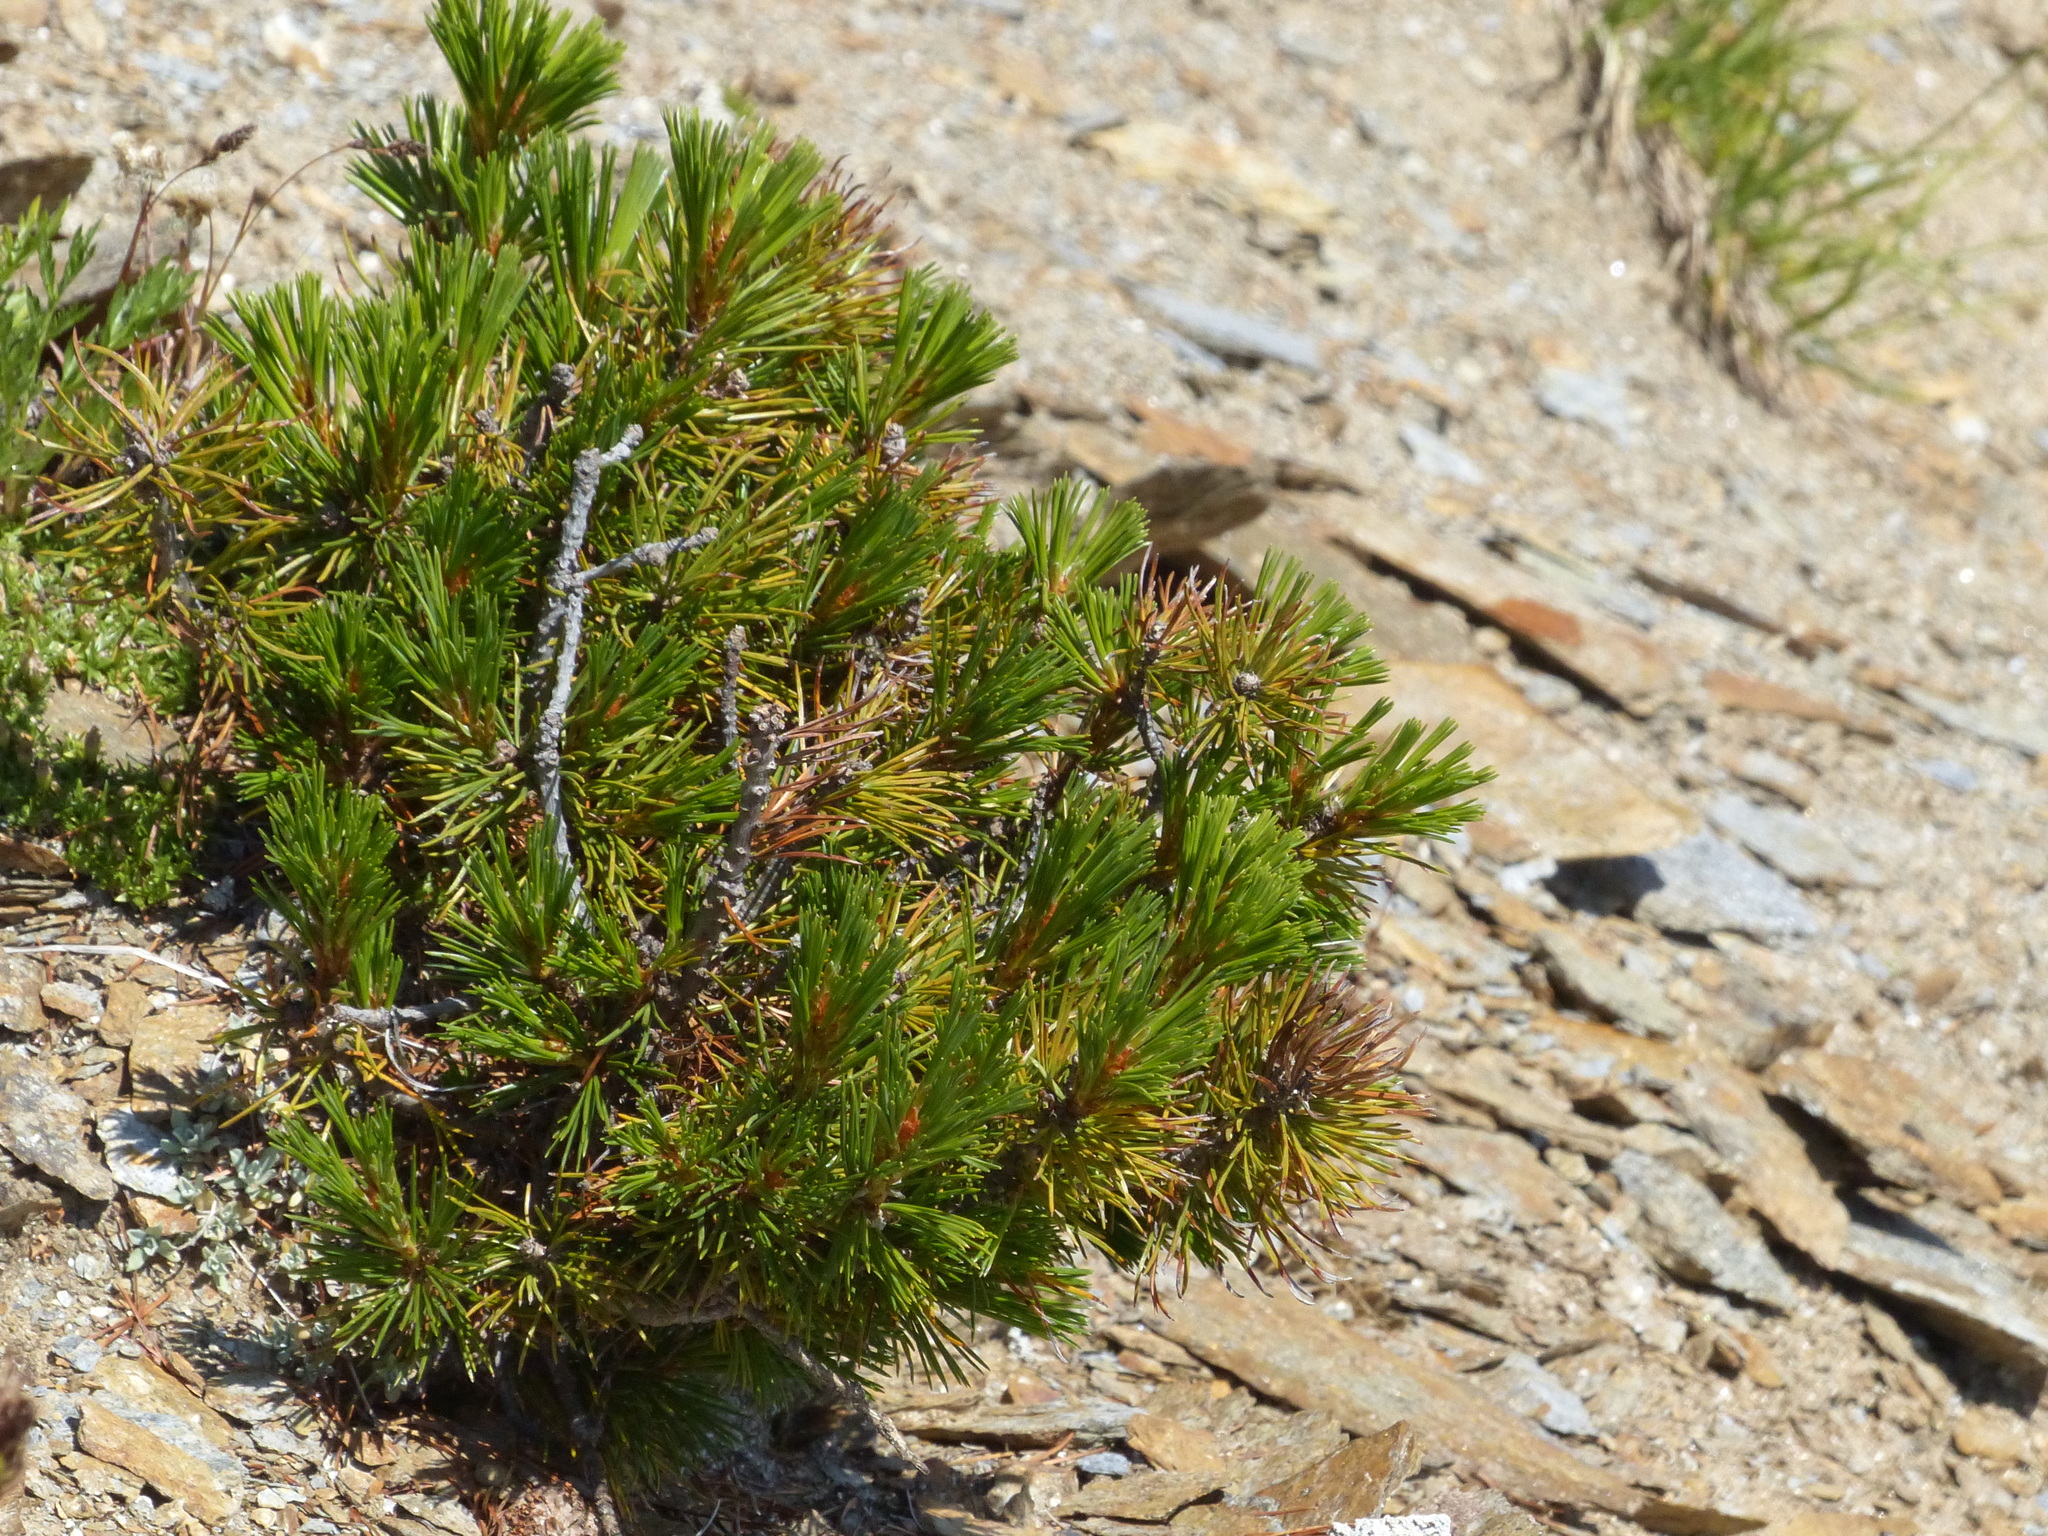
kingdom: Plantae
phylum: Tracheophyta
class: Pinopsida
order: Pinales
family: Pinaceae
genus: Pinus
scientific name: Pinus albicaulis
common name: Whitebark pine
